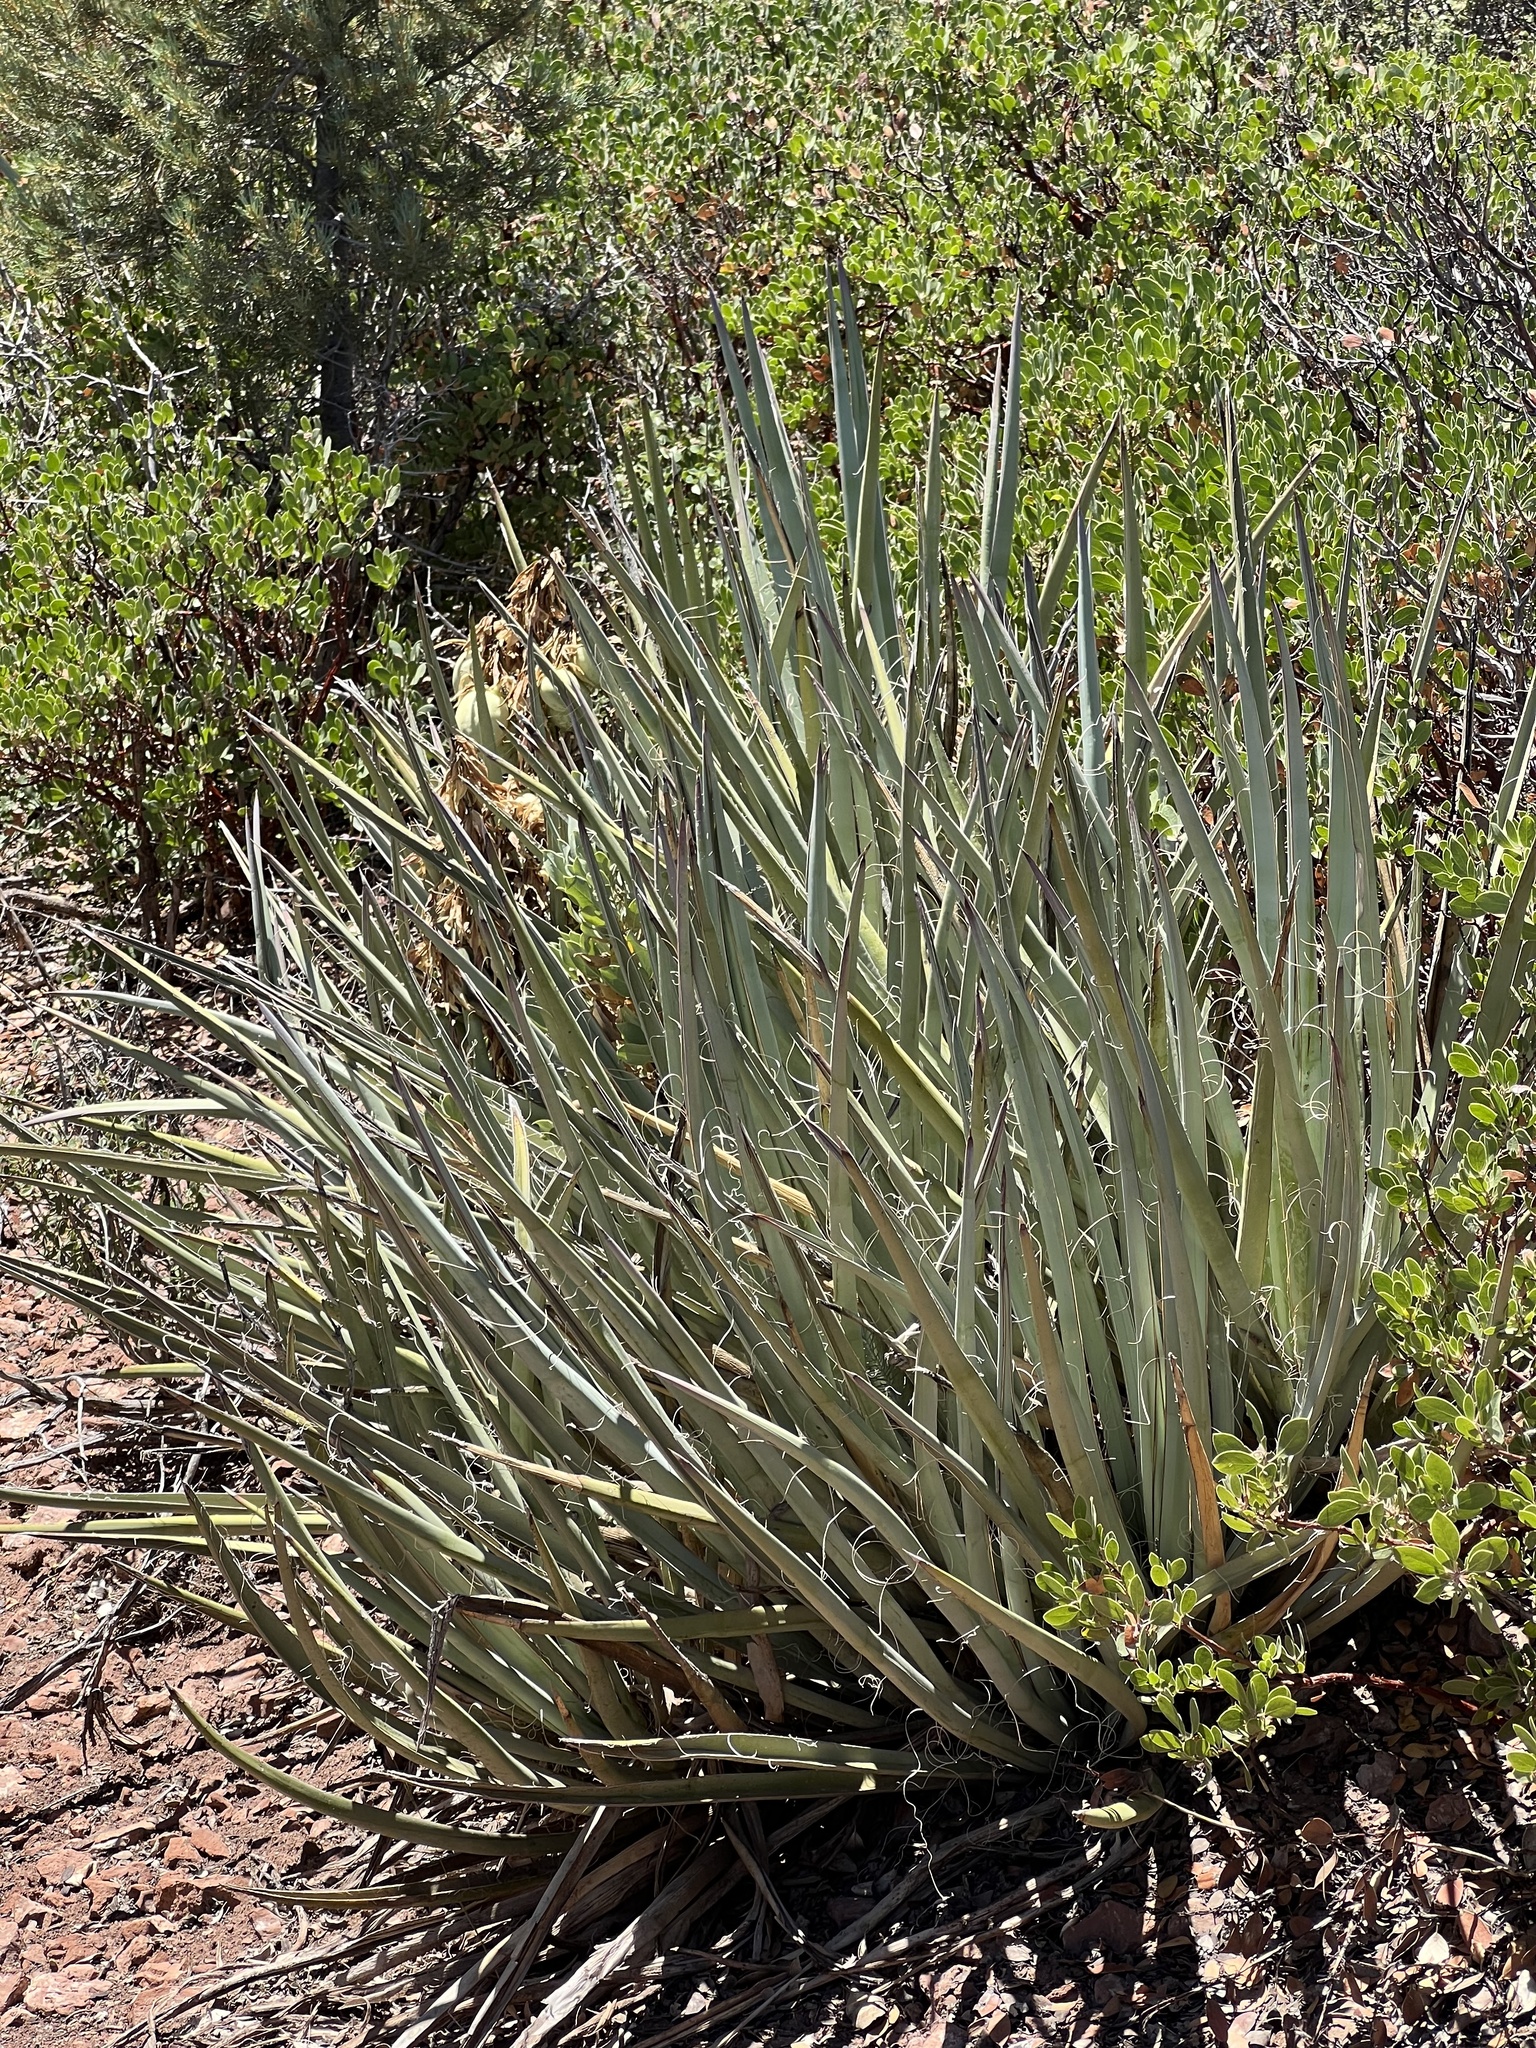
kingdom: Plantae
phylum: Tracheophyta
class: Liliopsida
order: Asparagales
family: Asparagaceae
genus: Yucca
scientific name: Yucca baccata
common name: Banana yucca
